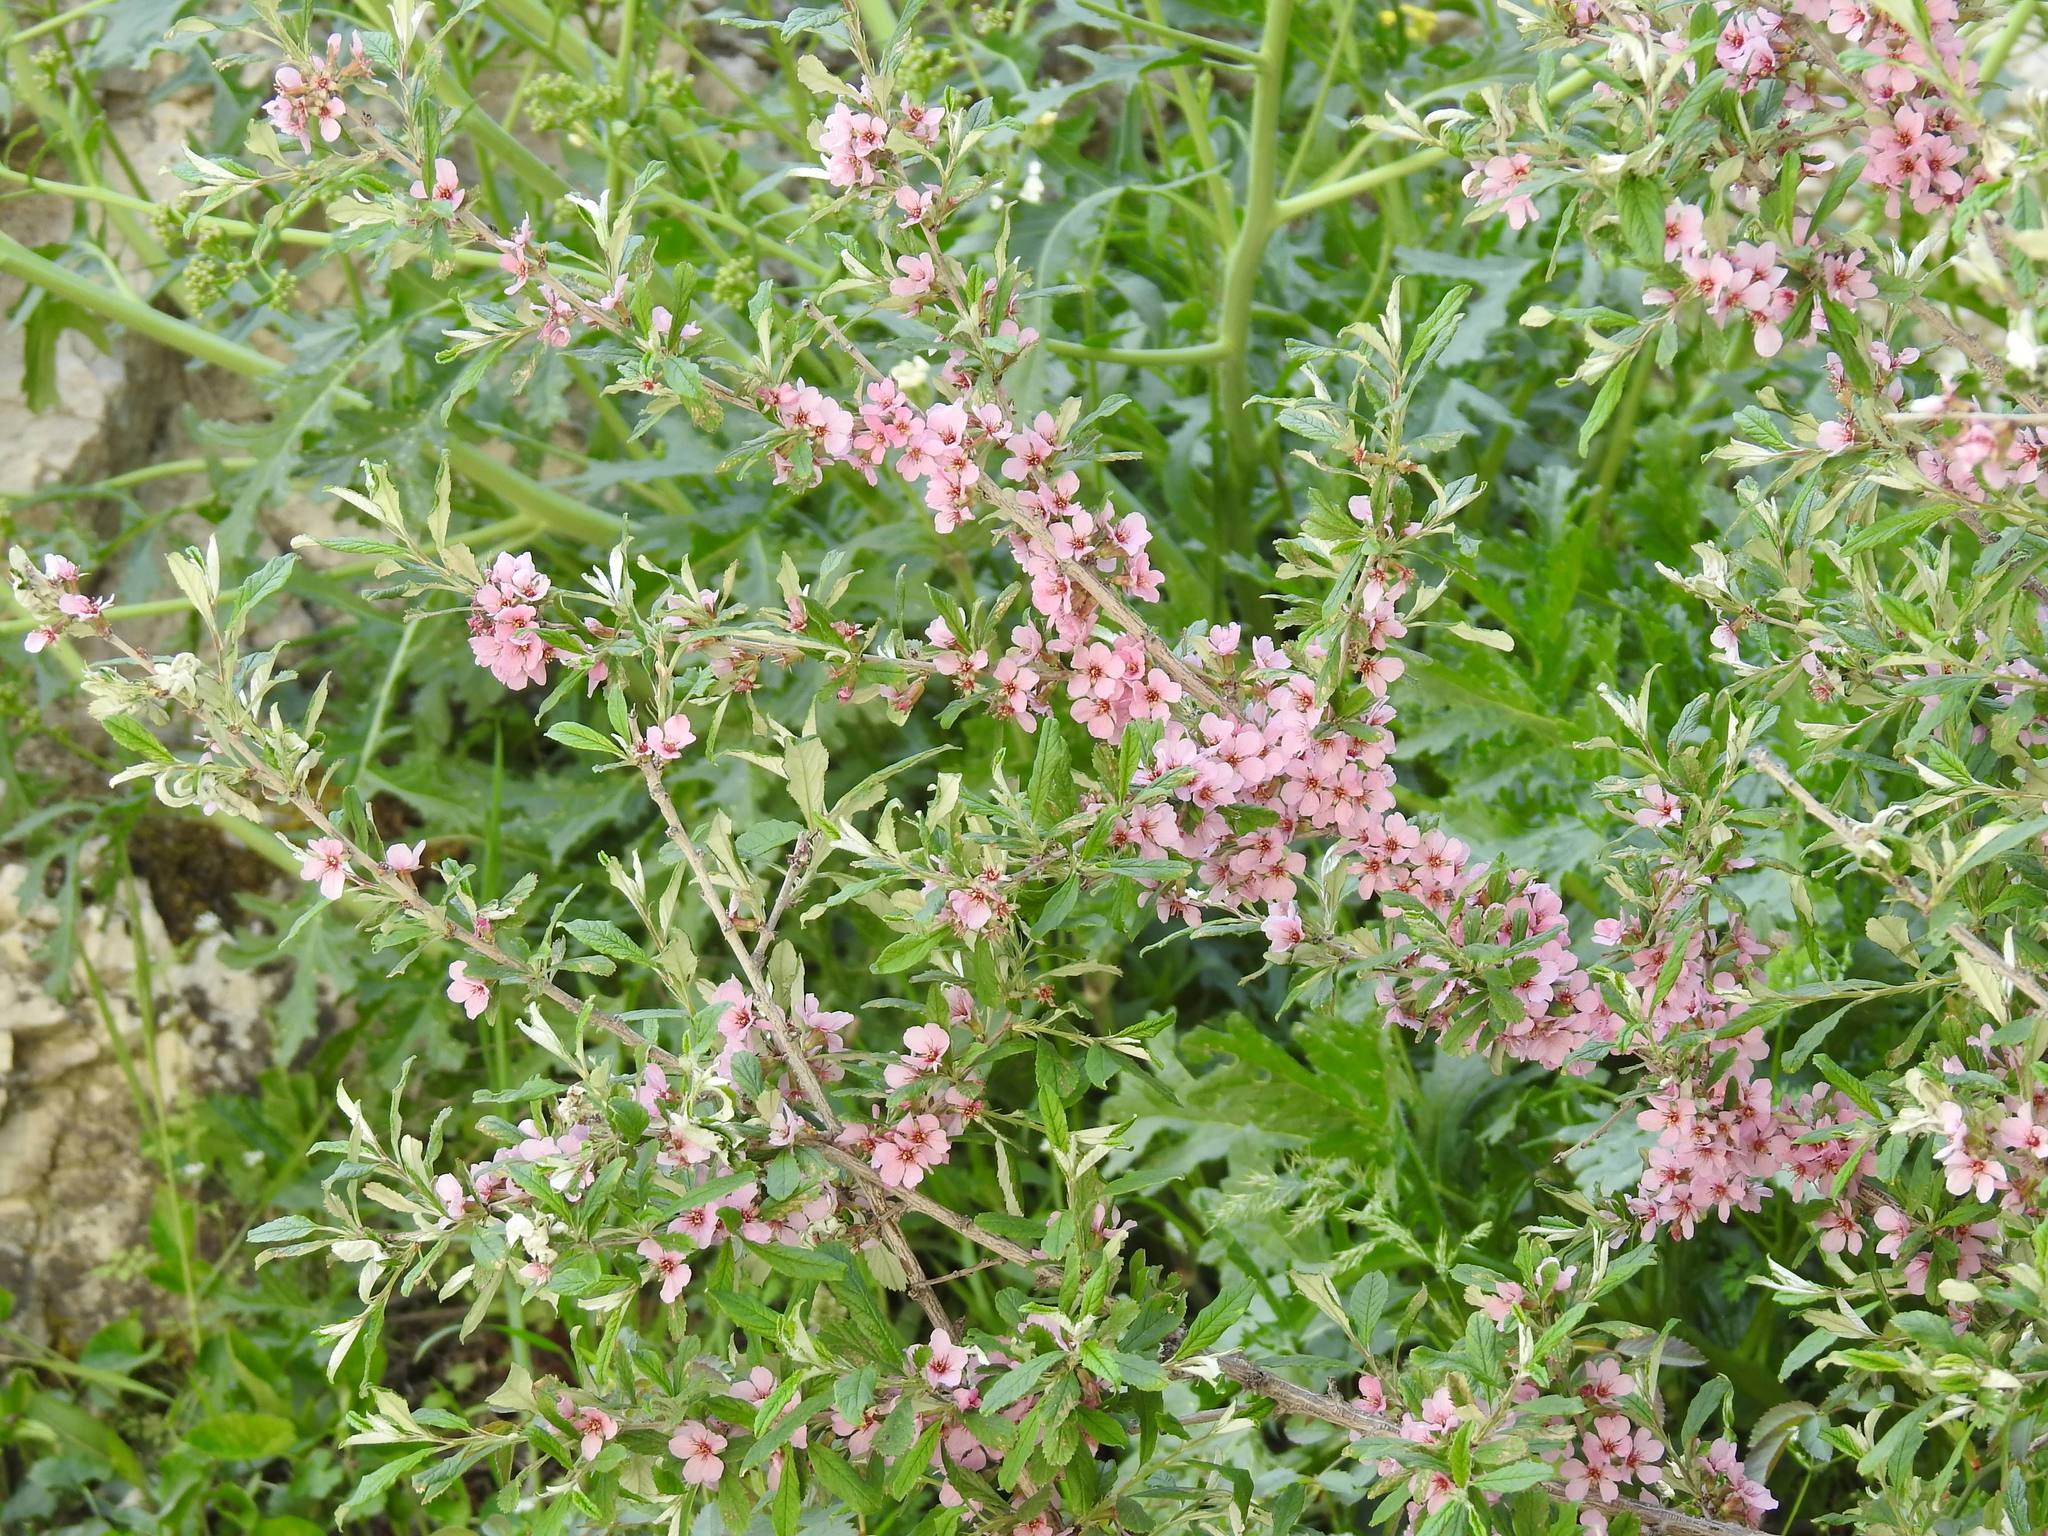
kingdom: Plantae
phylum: Tracheophyta
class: Magnoliopsida
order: Rosales
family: Rosaceae
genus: Prunus
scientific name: Prunus incana
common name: Willow cherry
